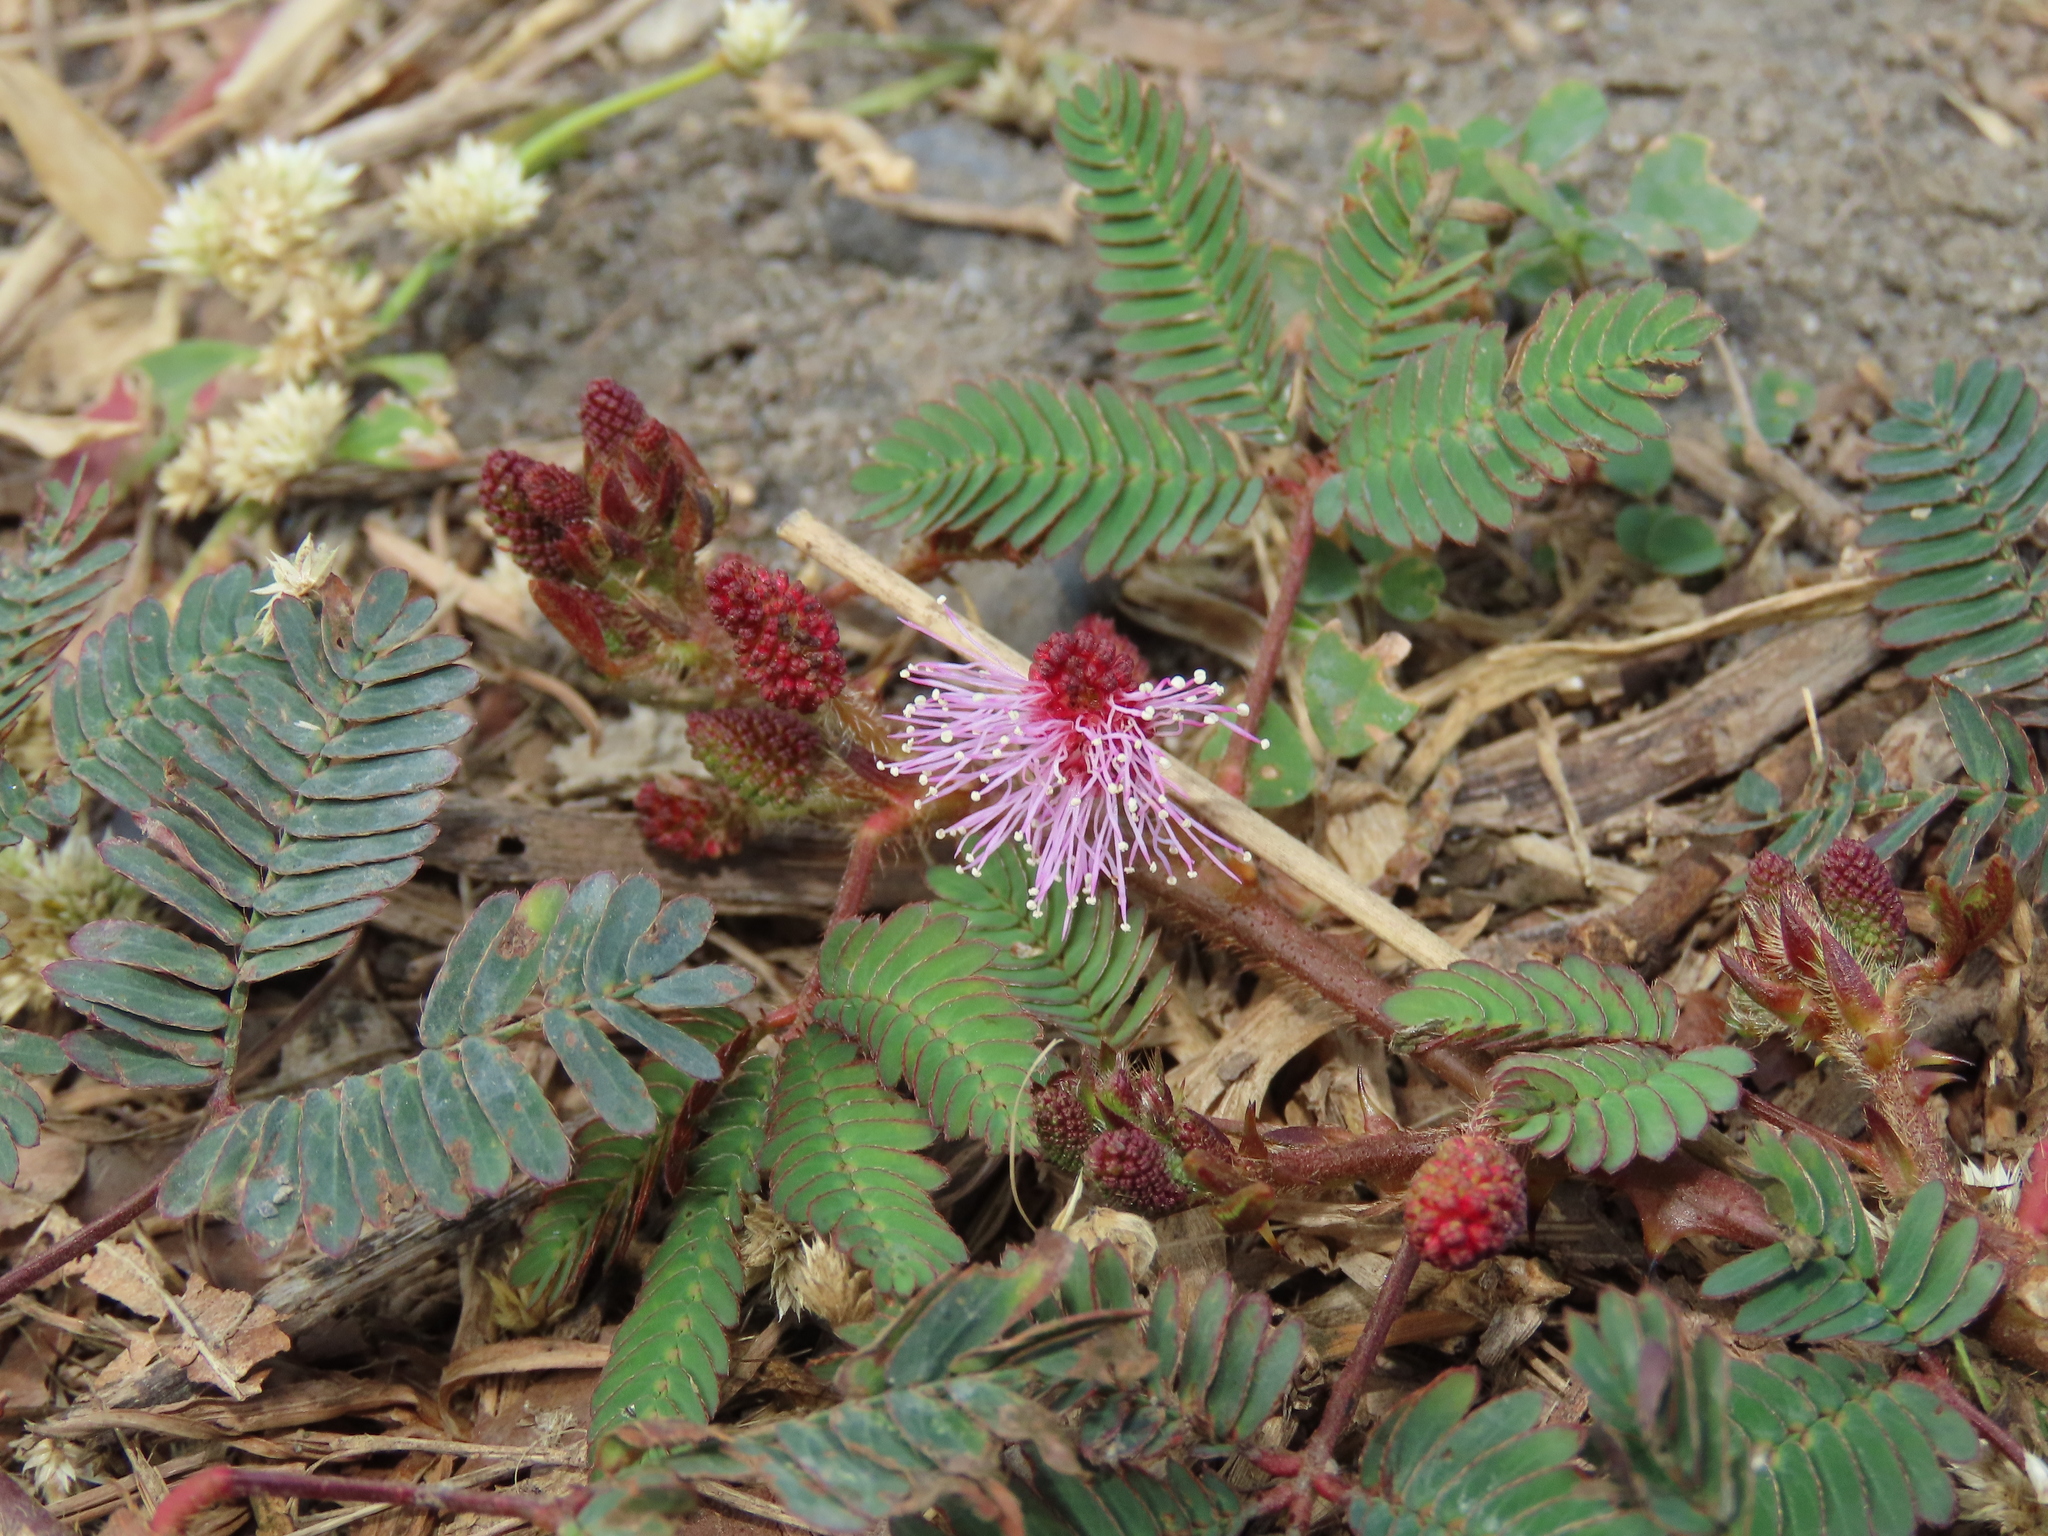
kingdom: Plantae
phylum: Tracheophyta
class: Magnoliopsida
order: Fabales
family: Fabaceae
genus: Mimosa
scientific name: Mimosa pudica
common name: Sensitive plant
